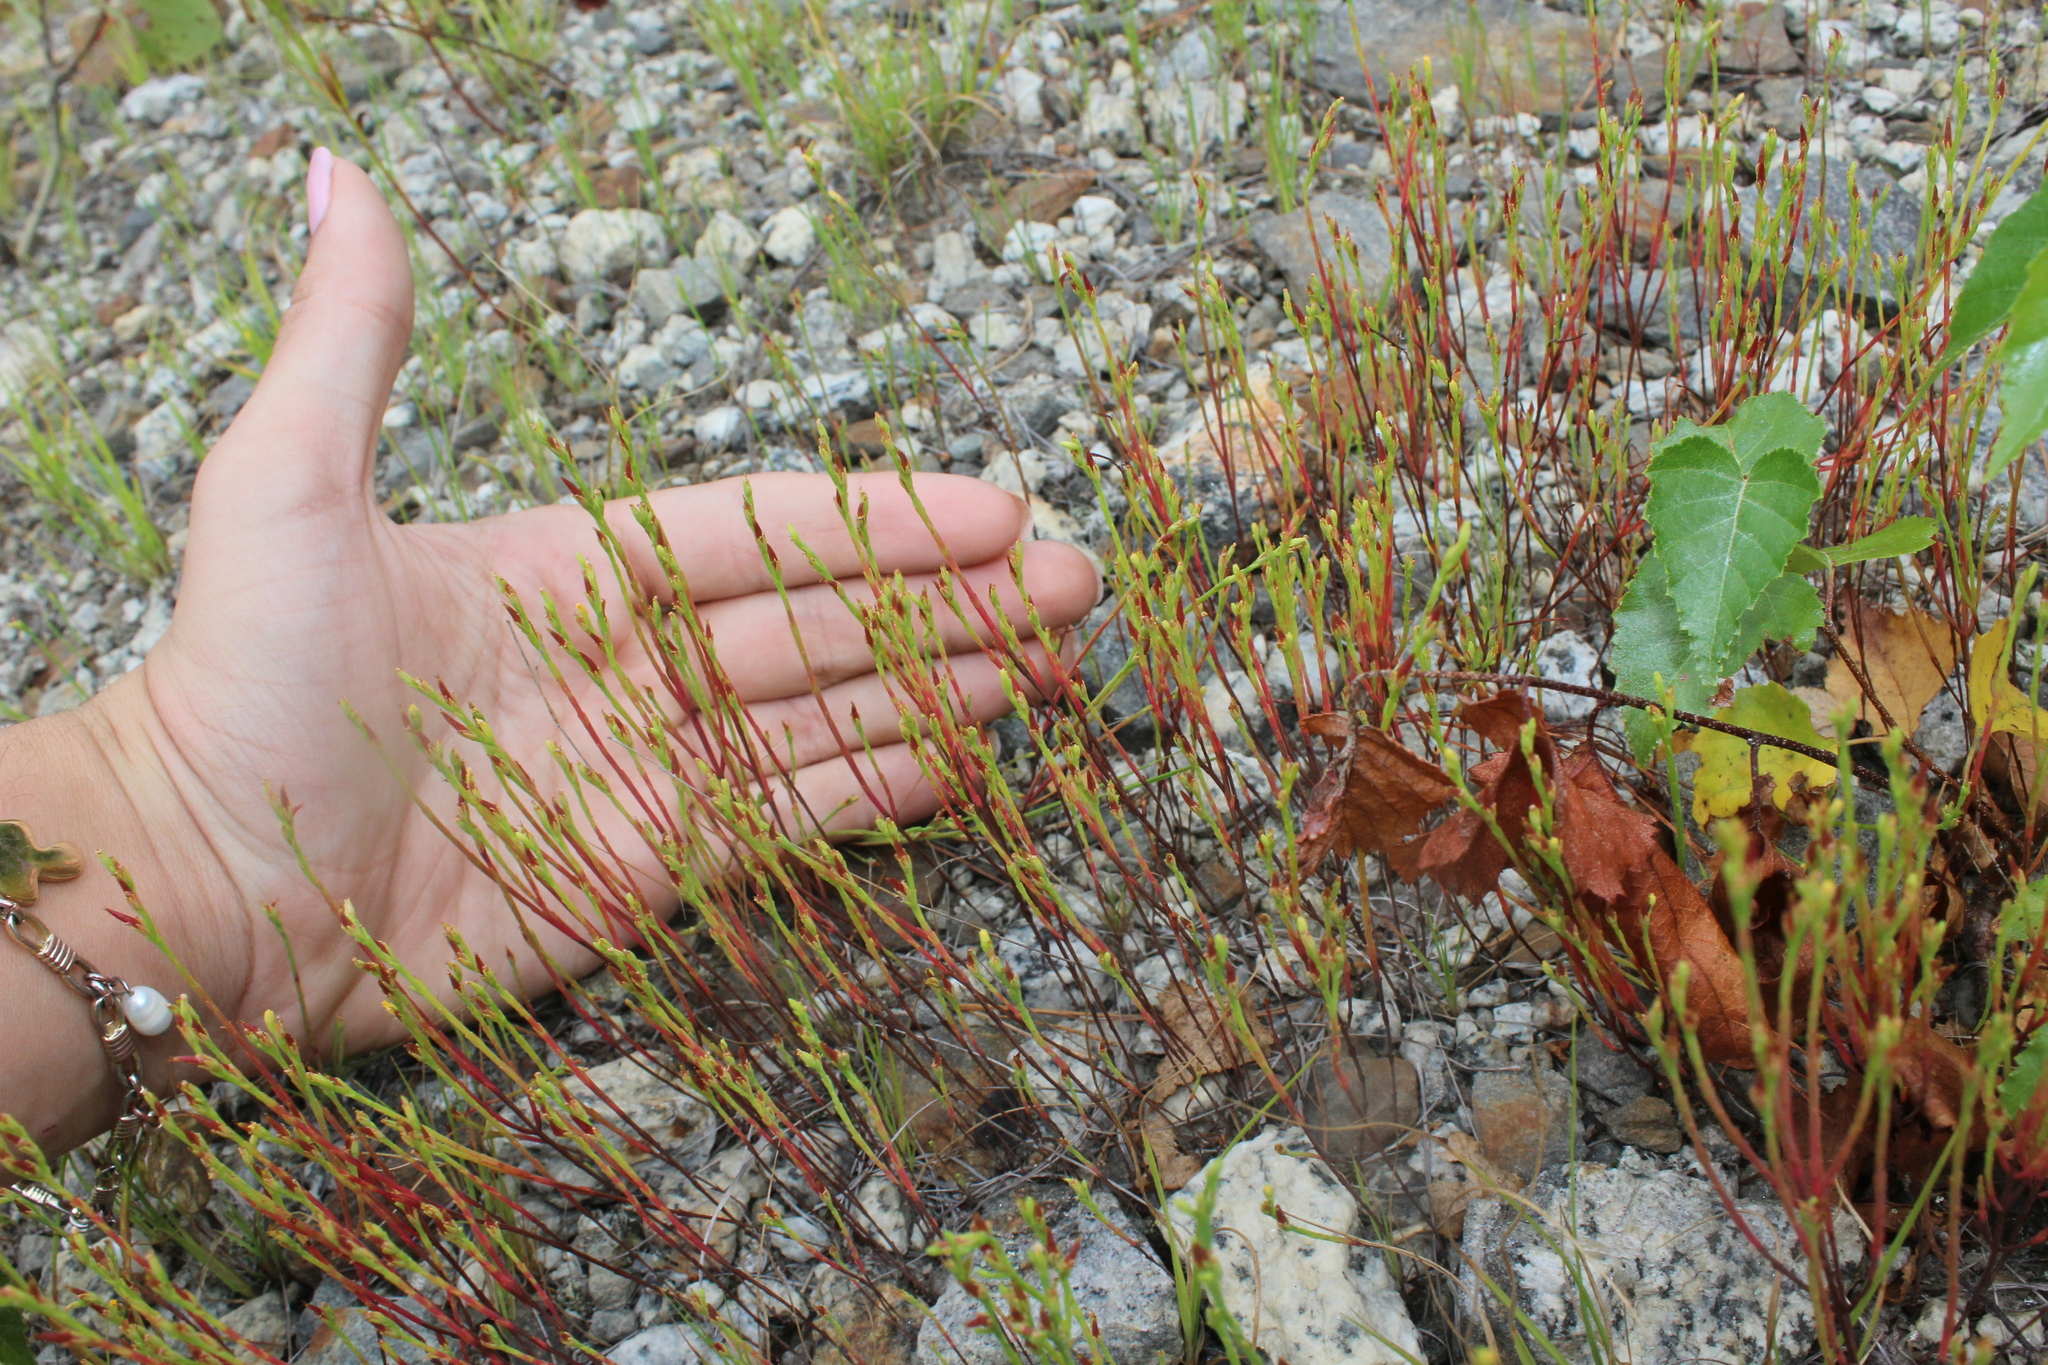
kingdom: Plantae
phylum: Tracheophyta
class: Magnoliopsida
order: Malpighiales
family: Hypericaceae
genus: Hypericum
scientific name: Hypericum gentianoides
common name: Gentian-leaved st. john's-wort
